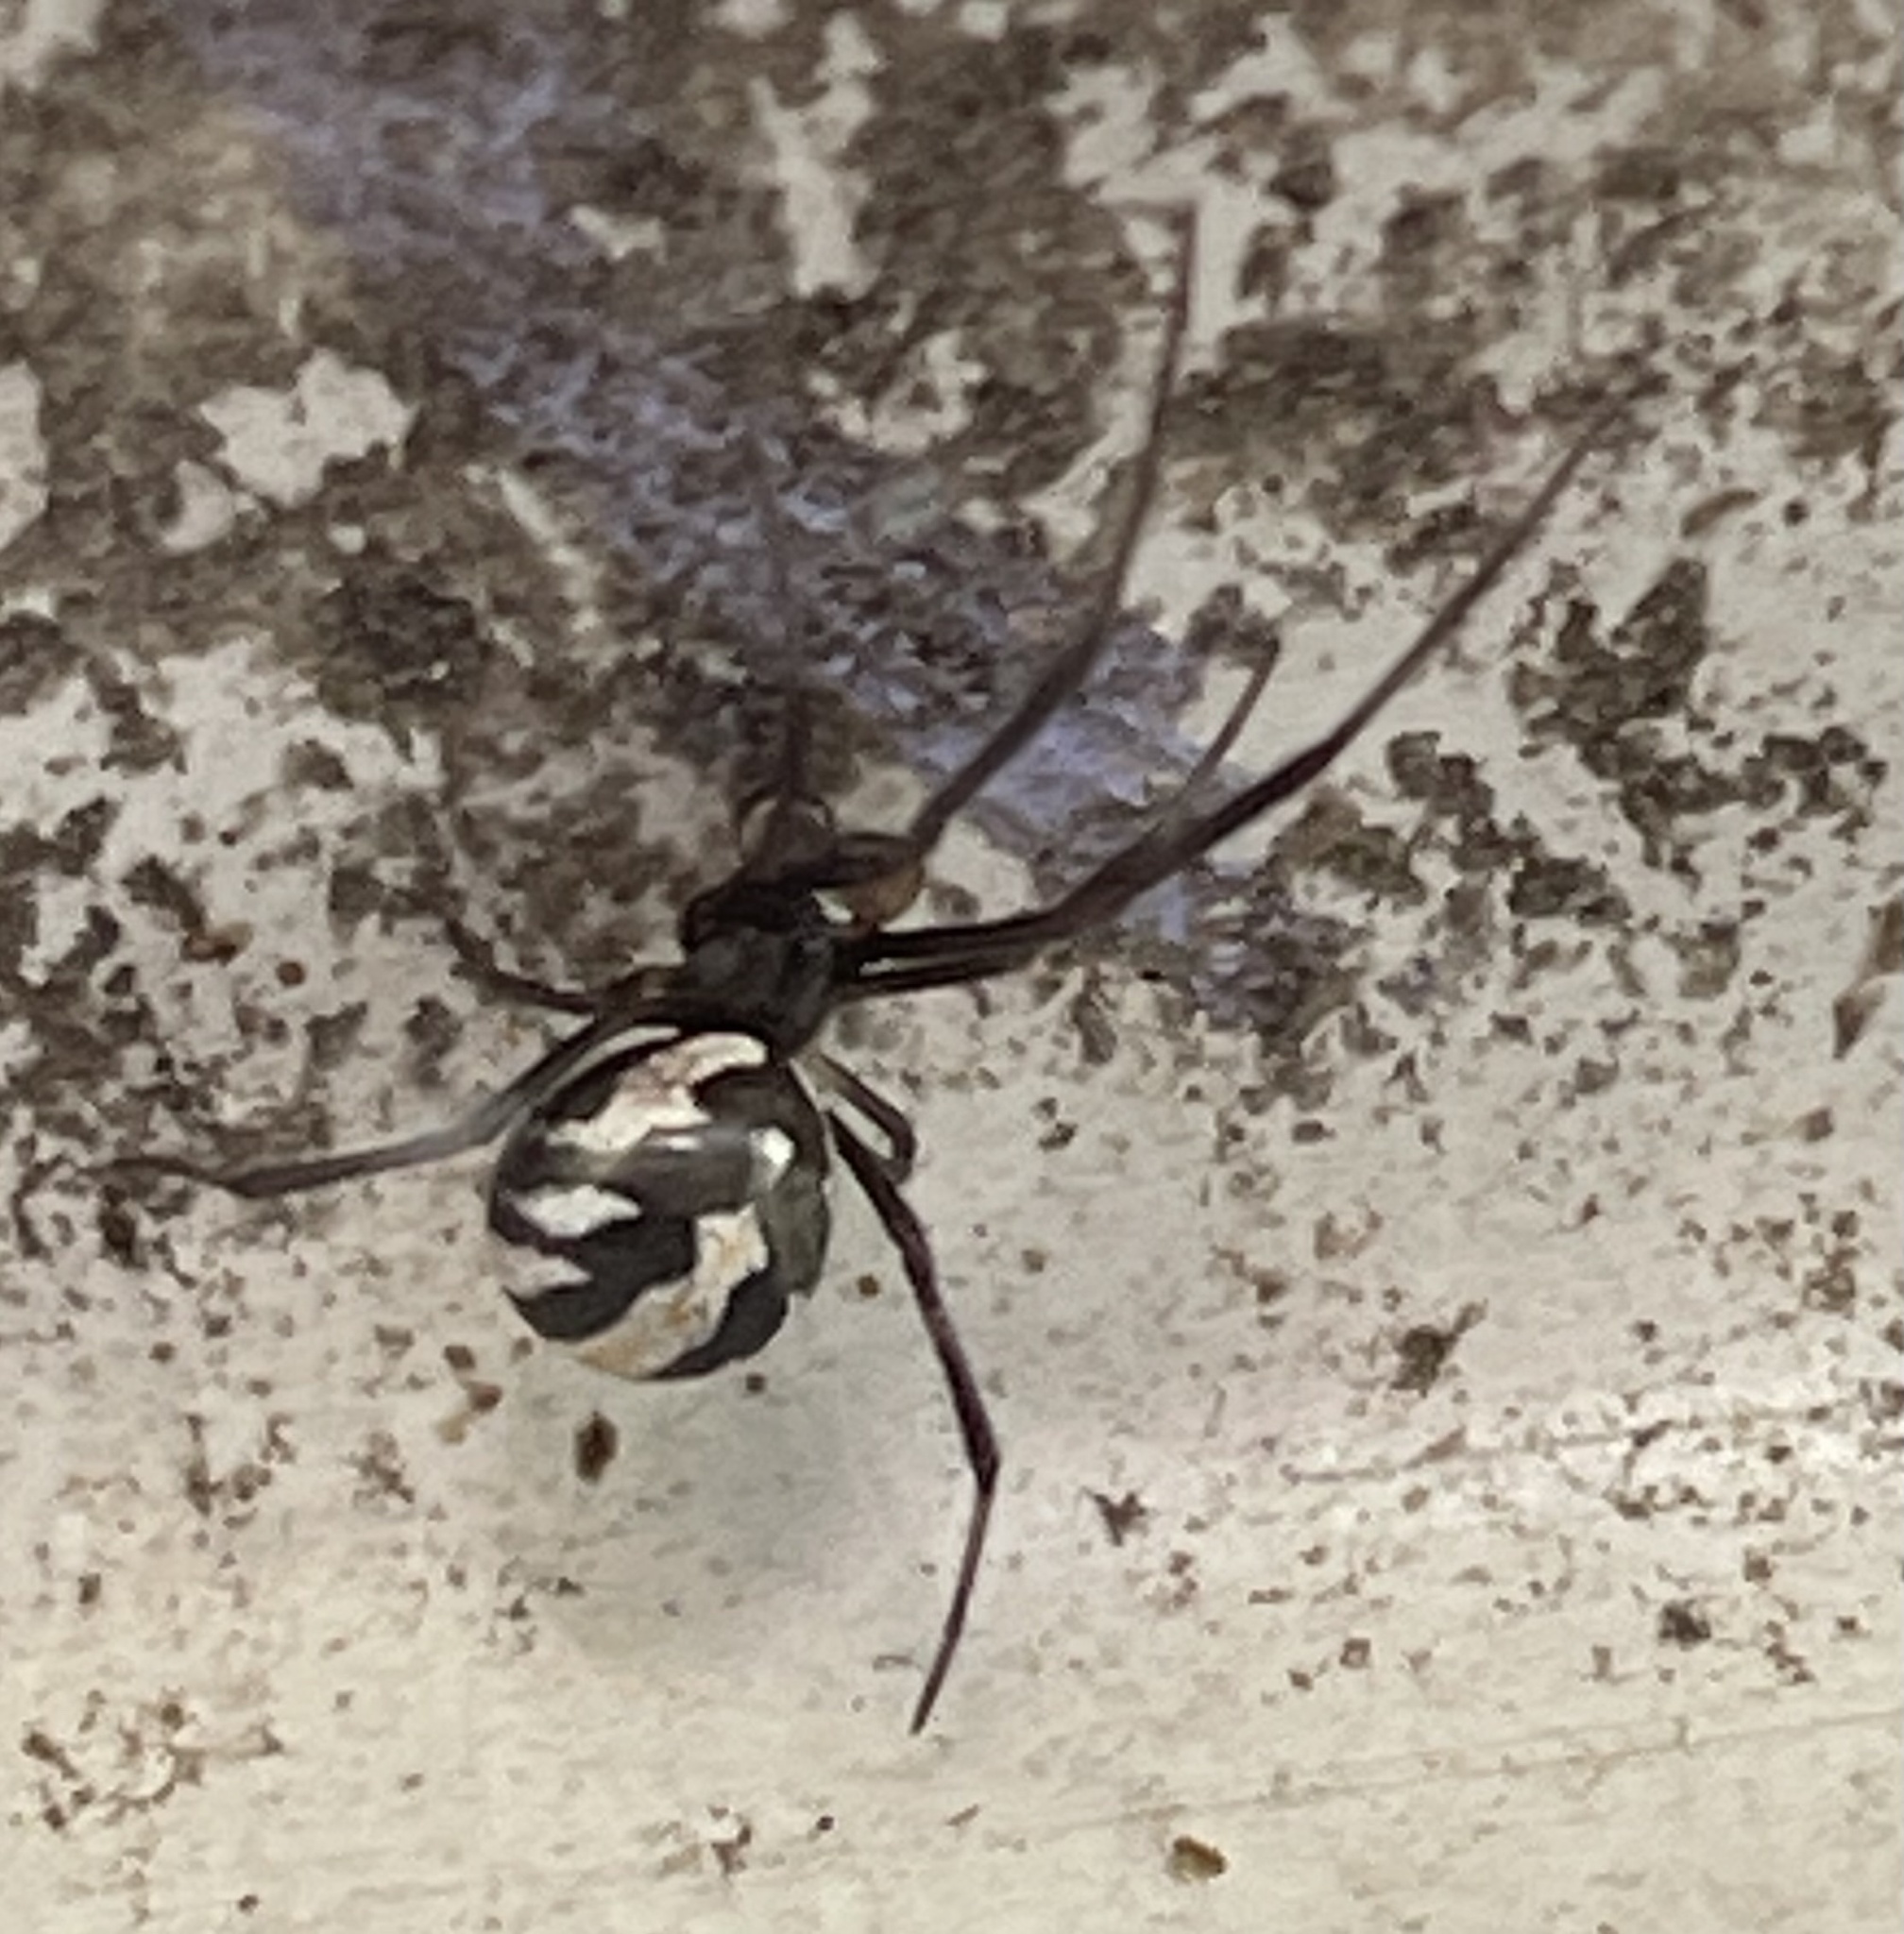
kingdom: Animalia
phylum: Arthropoda
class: Arachnida
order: Araneae
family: Theridiidae
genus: Latrodectus
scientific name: Latrodectus hasselti
